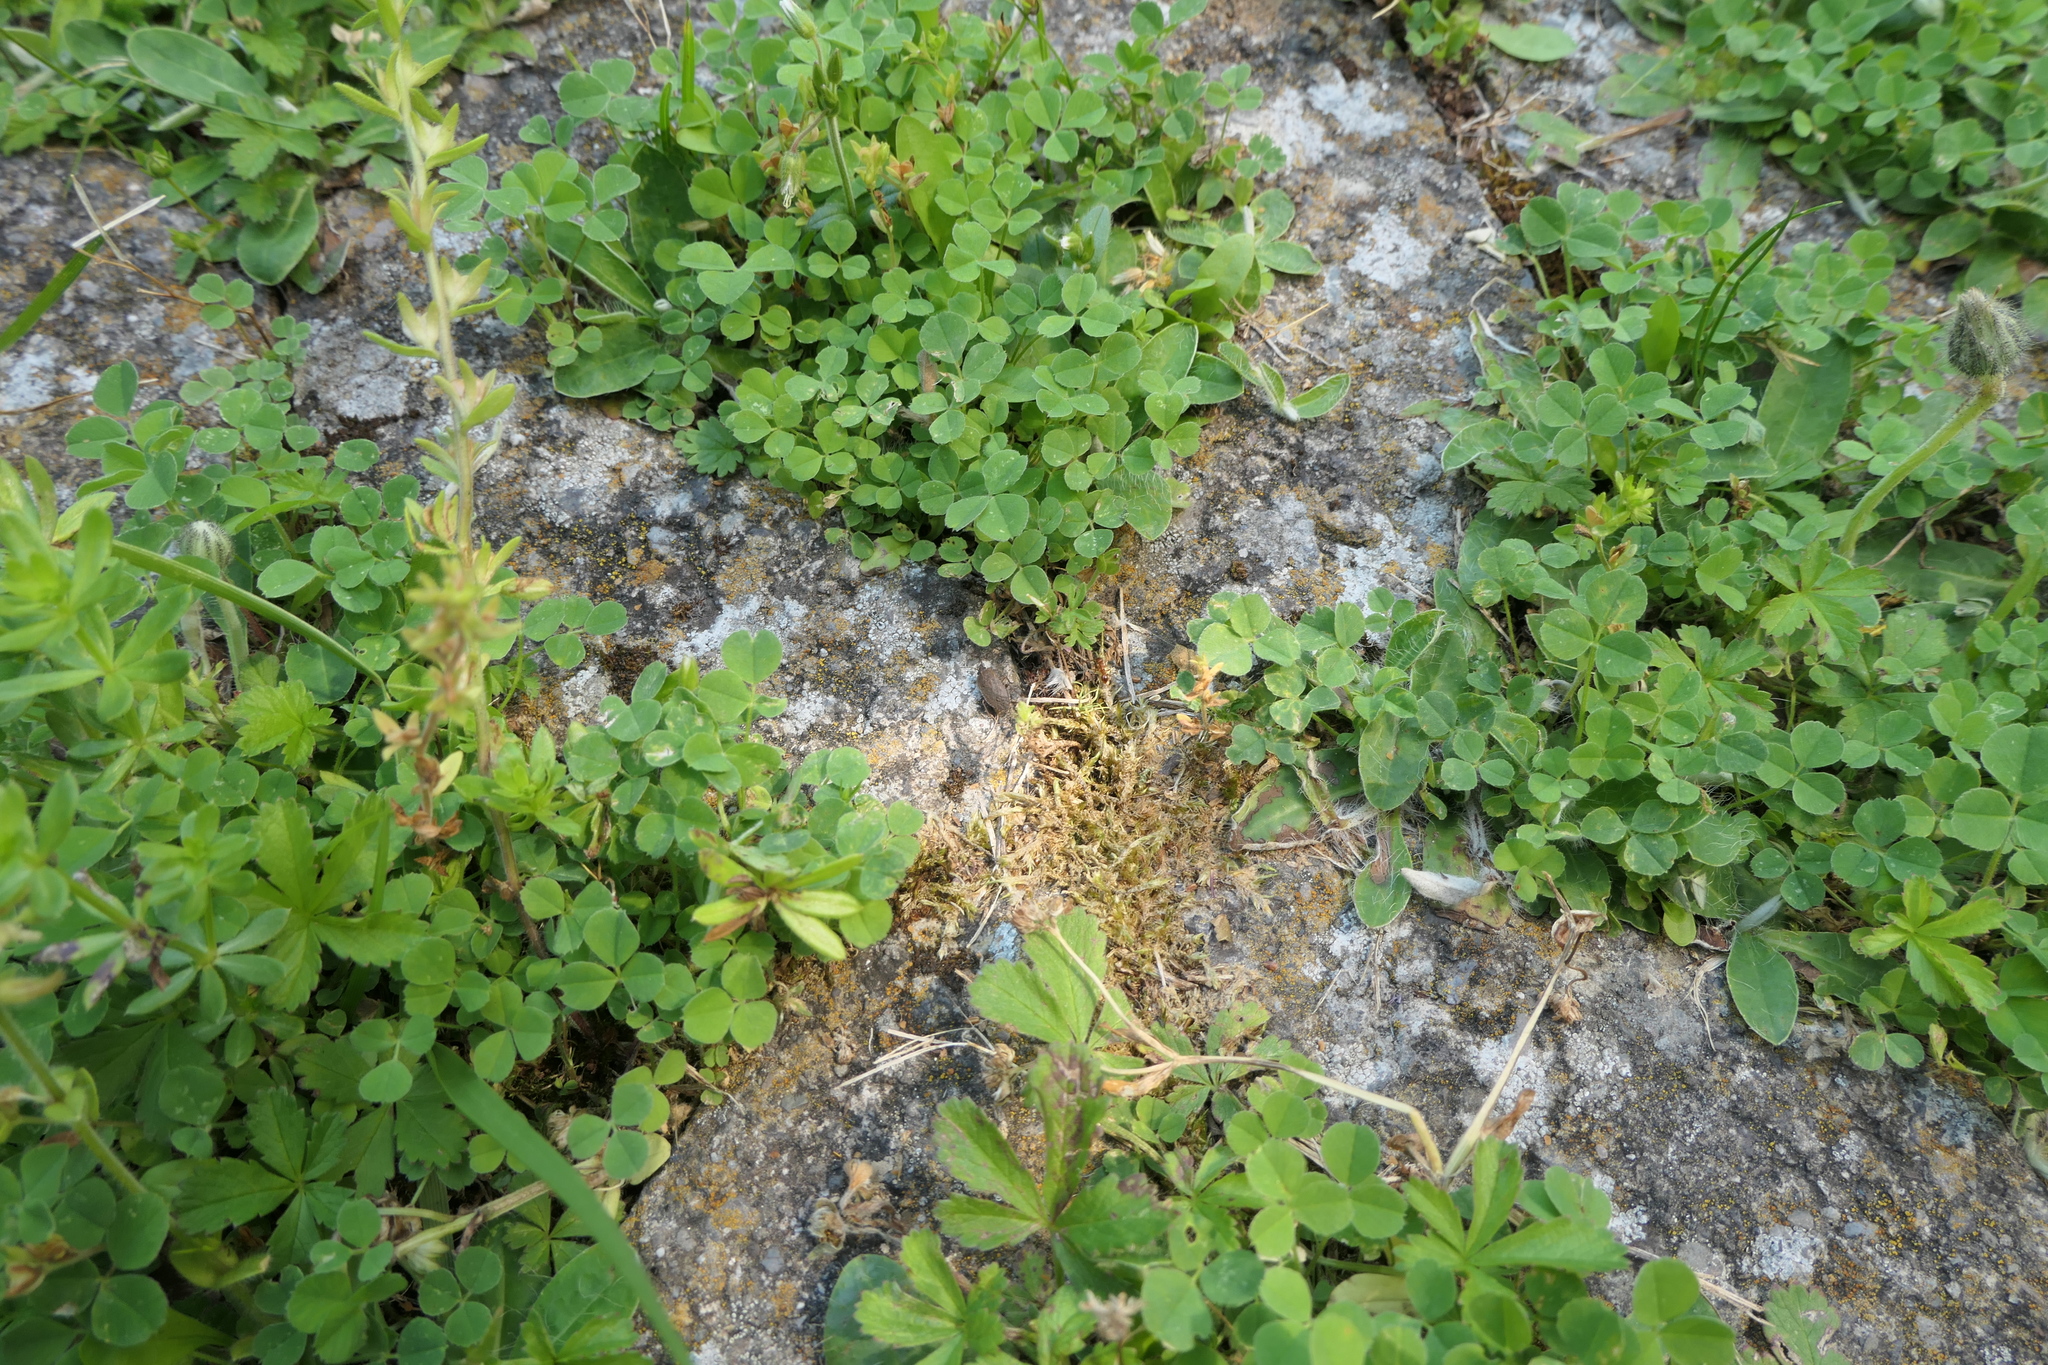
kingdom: Plantae
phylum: Tracheophyta
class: Magnoliopsida
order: Lamiales
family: Plantaginaceae
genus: Veronica
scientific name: Veronica arvensis
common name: Corn speedwell
